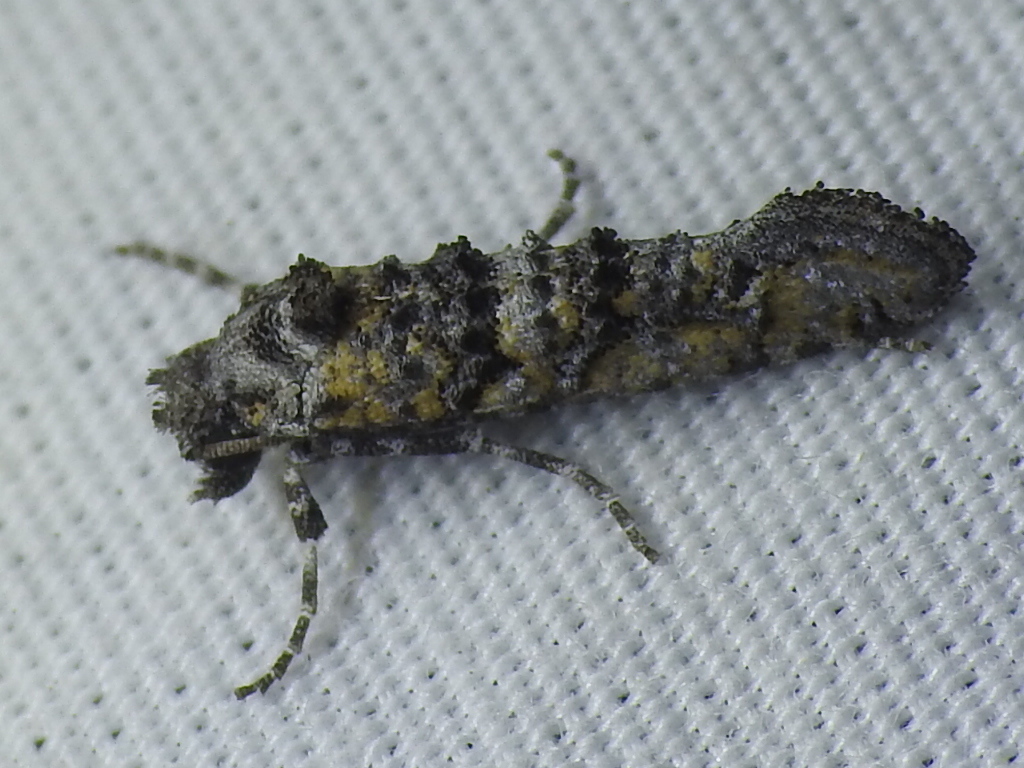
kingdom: Animalia
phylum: Arthropoda
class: Insecta
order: Lepidoptera
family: Tineidae
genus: Dyotopasta
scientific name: Dyotopasta yumaella
